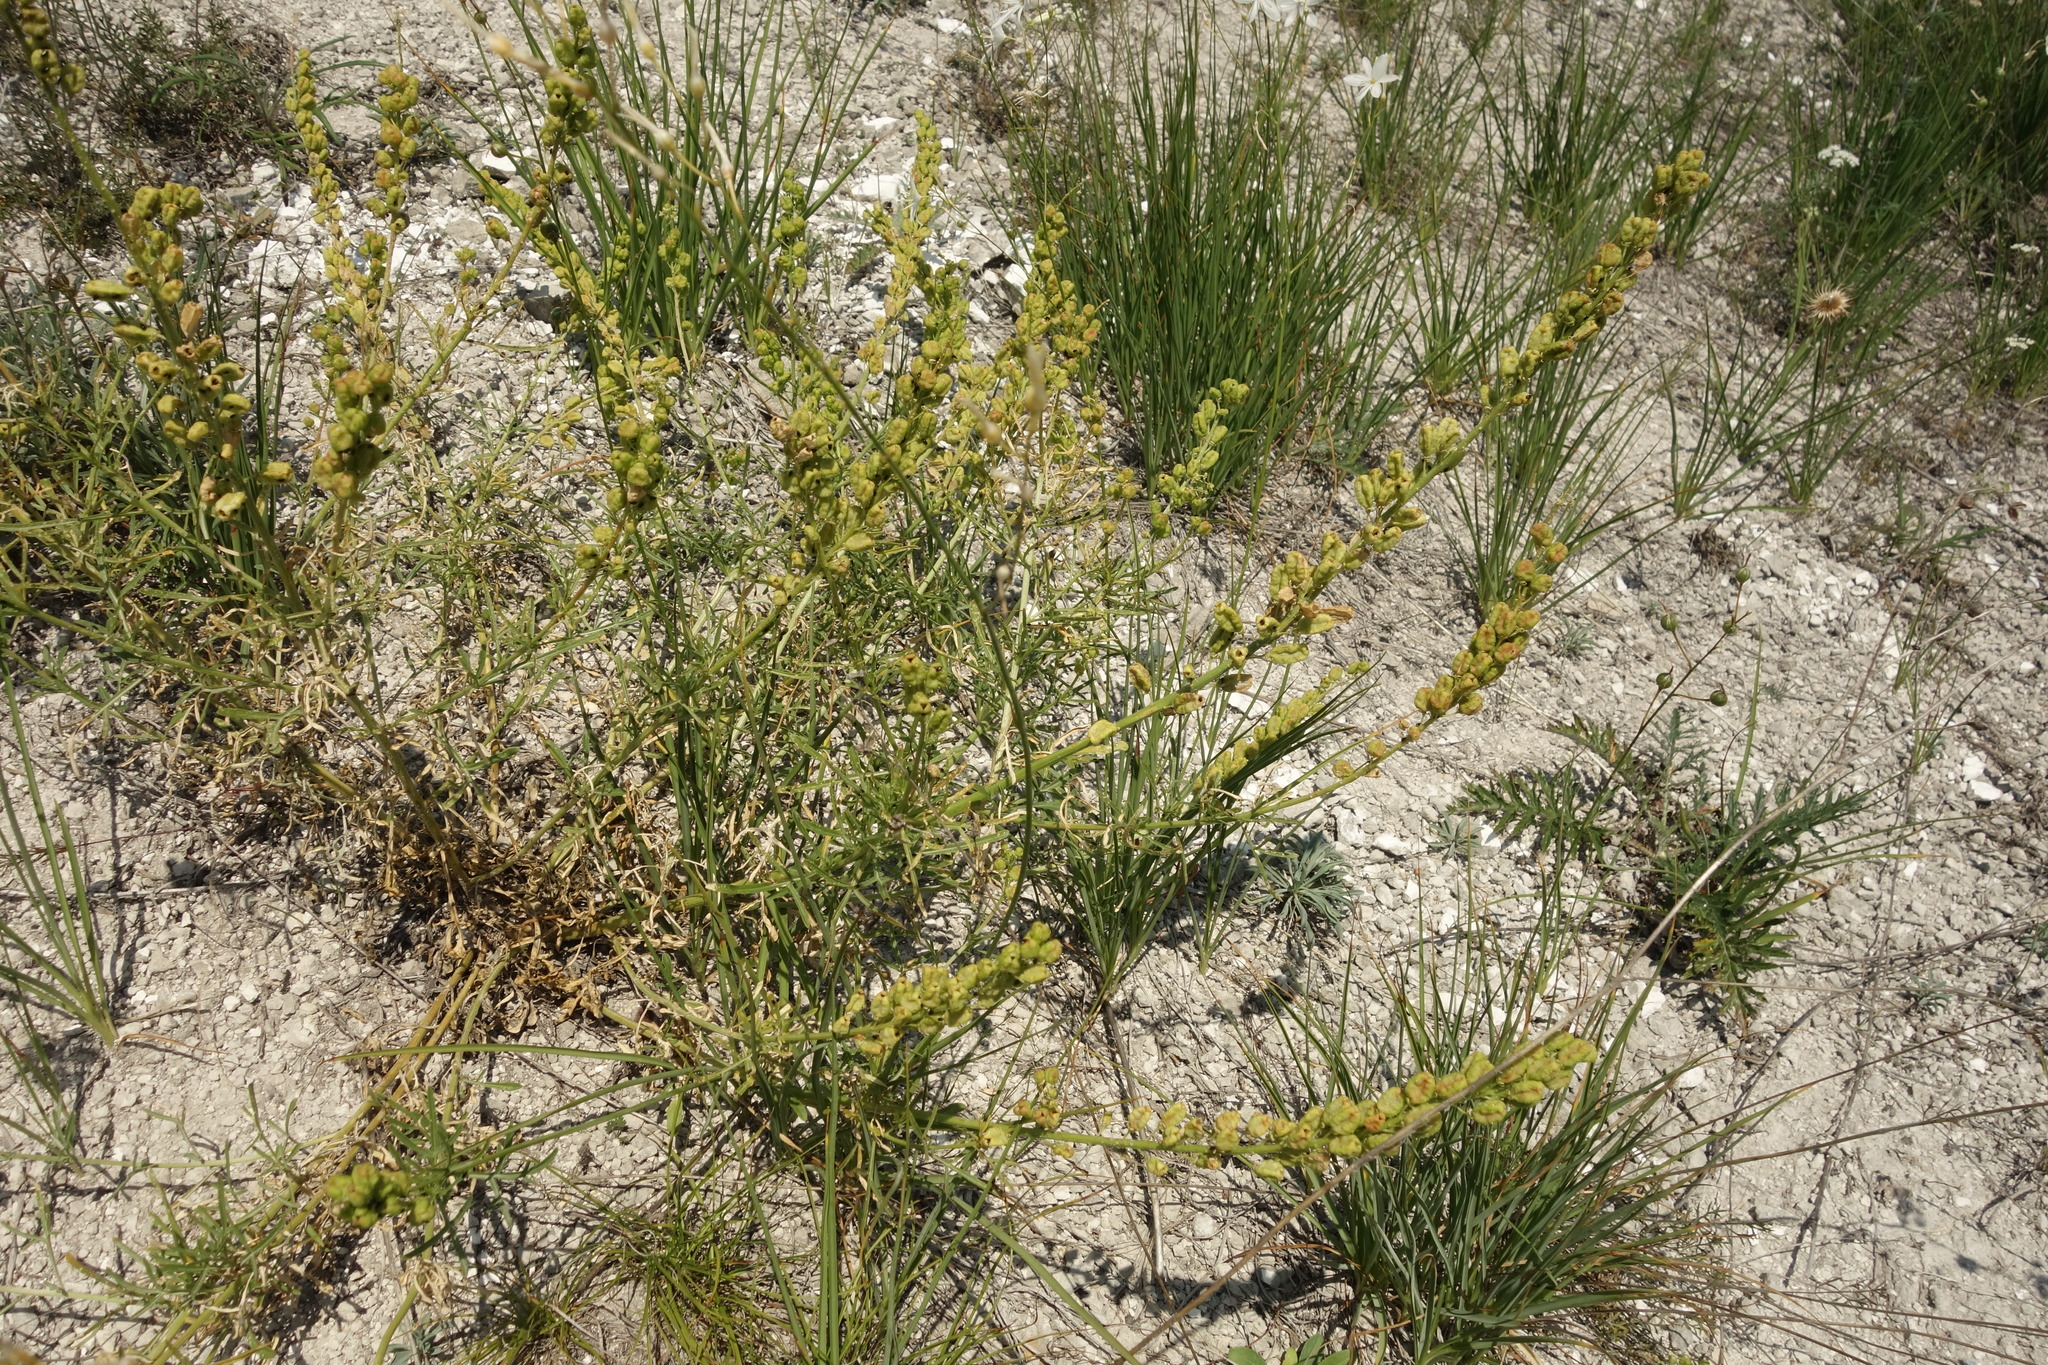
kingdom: Plantae
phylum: Tracheophyta
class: Magnoliopsida
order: Brassicales
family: Resedaceae
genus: Reseda
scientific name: Reseda lutea
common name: Wild mignonette
